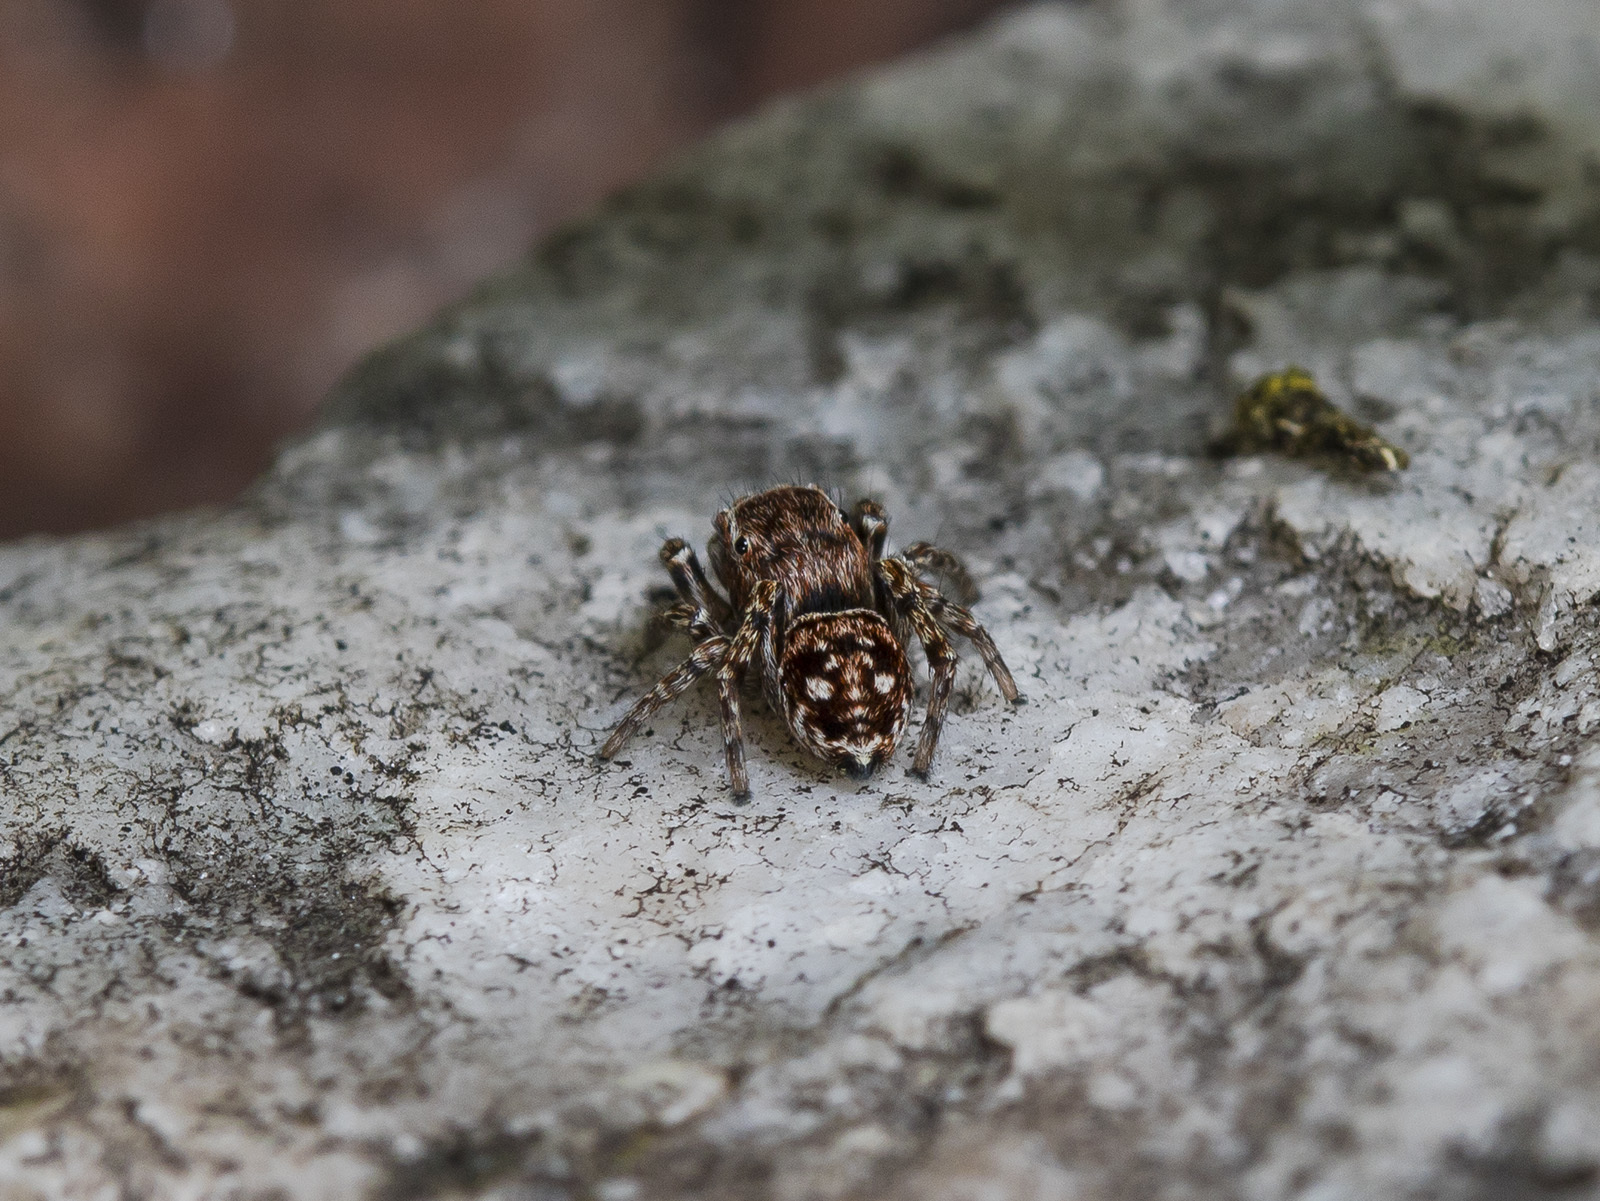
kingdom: Animalia
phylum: Arthropoda
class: Arachnida
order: Araneae
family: Salticidae
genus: Attulus
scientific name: Attulus mirandus
